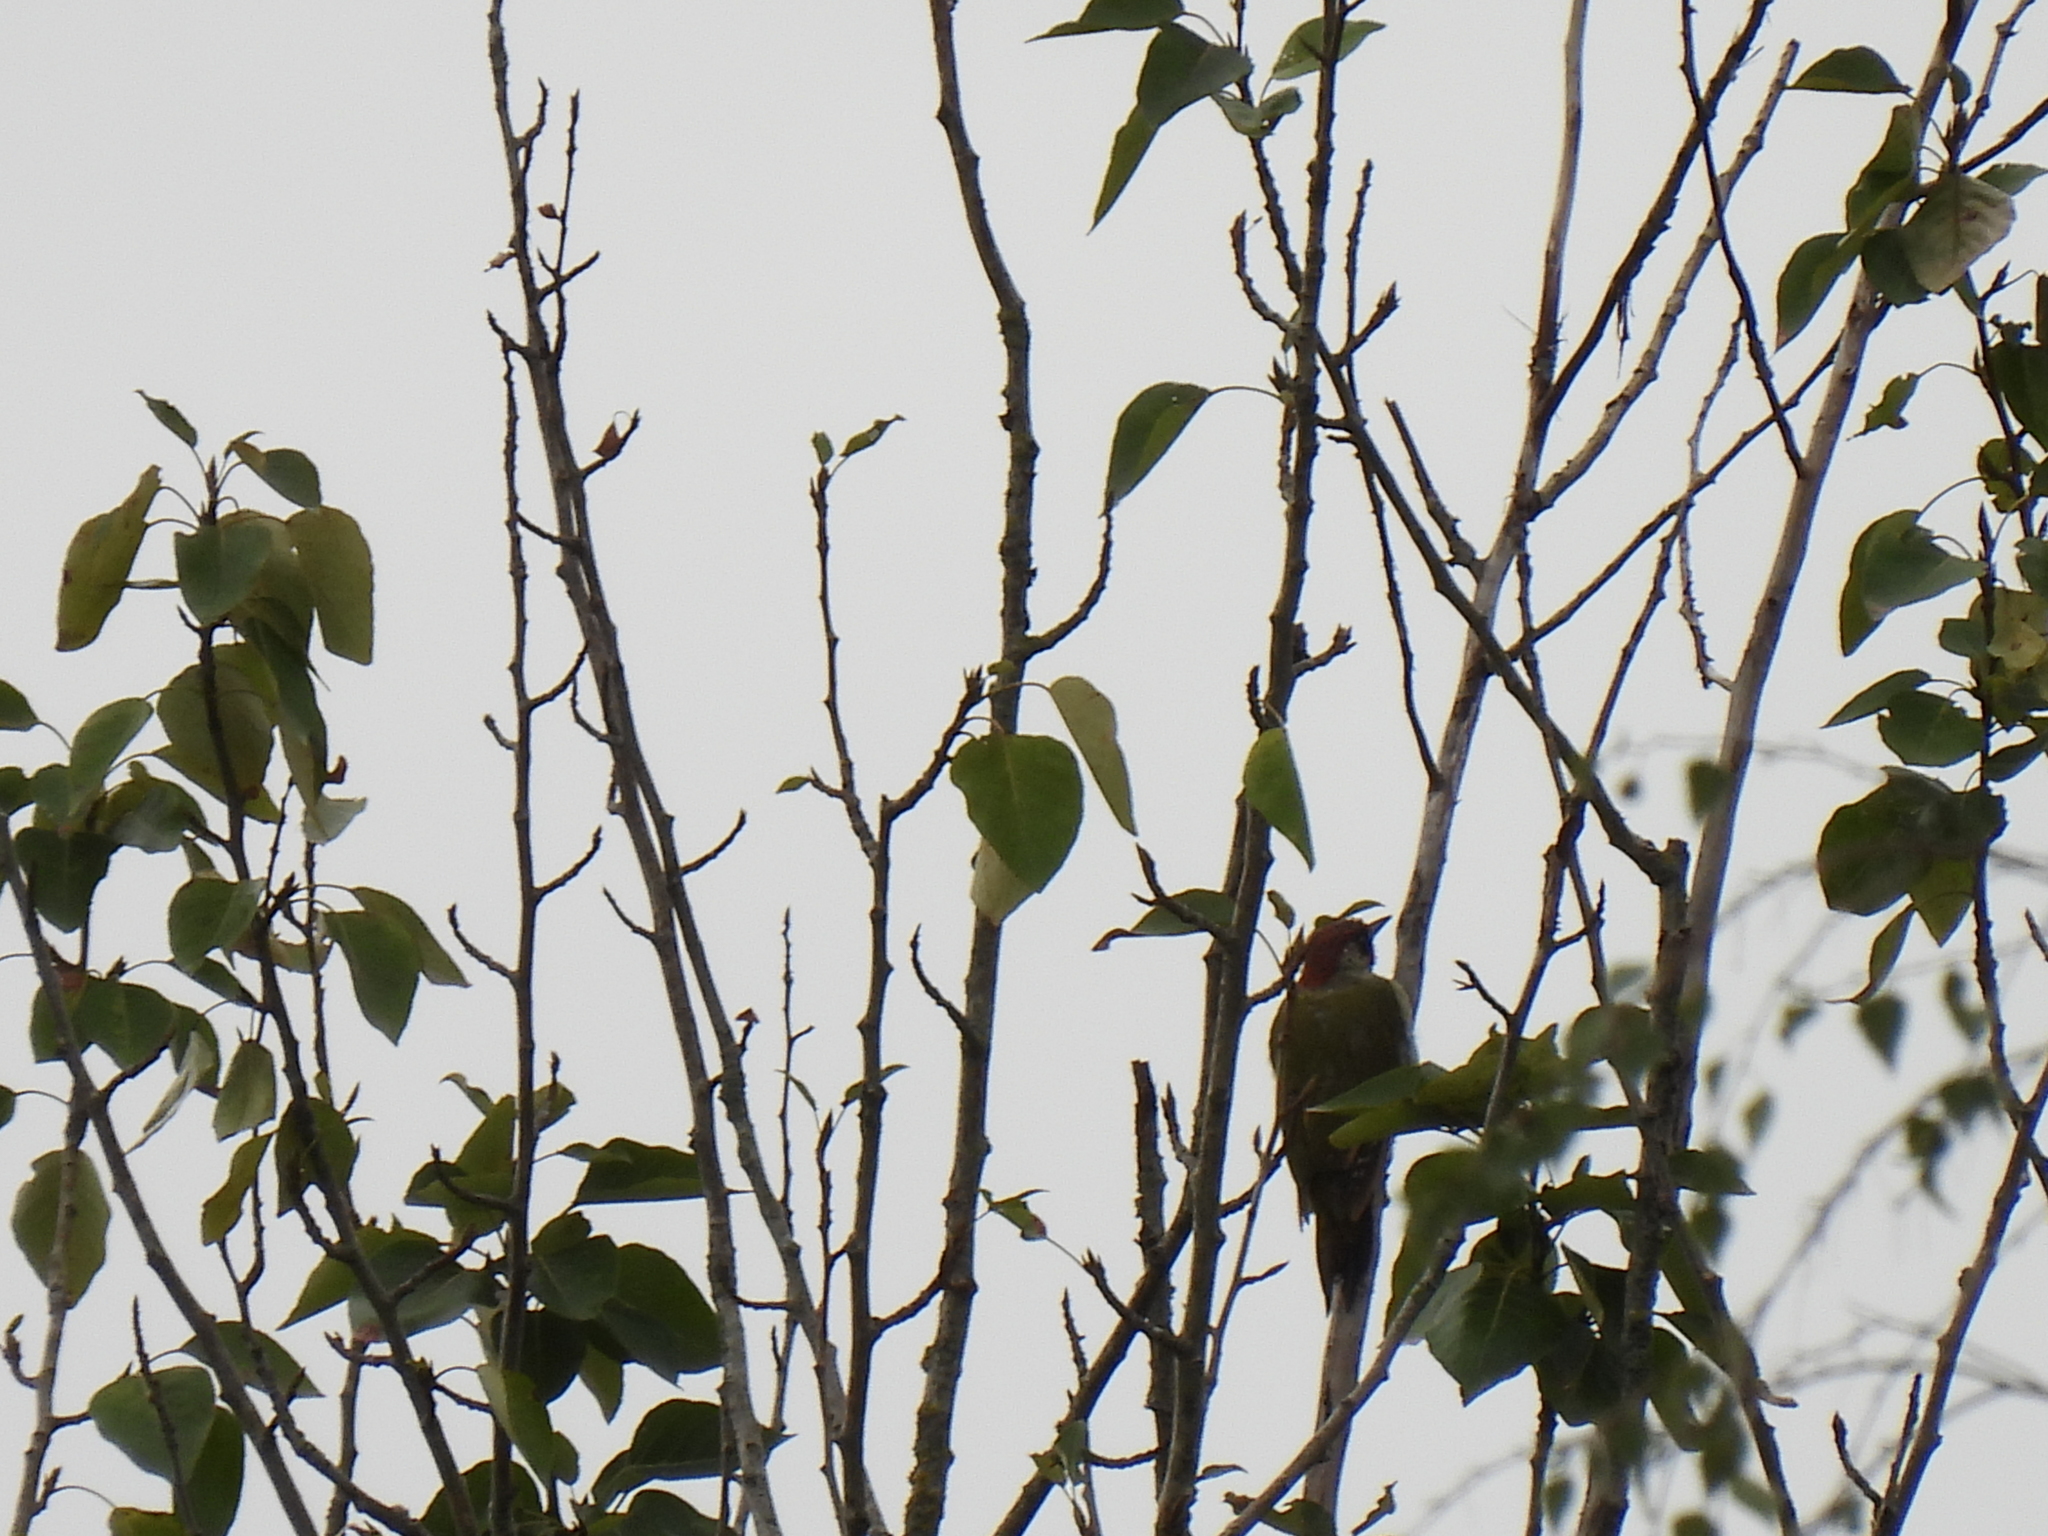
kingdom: Animalia
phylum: Chordata
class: Aves
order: Piciformes
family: Picidae
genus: Picus
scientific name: Picus viridis
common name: European green woodpecker
